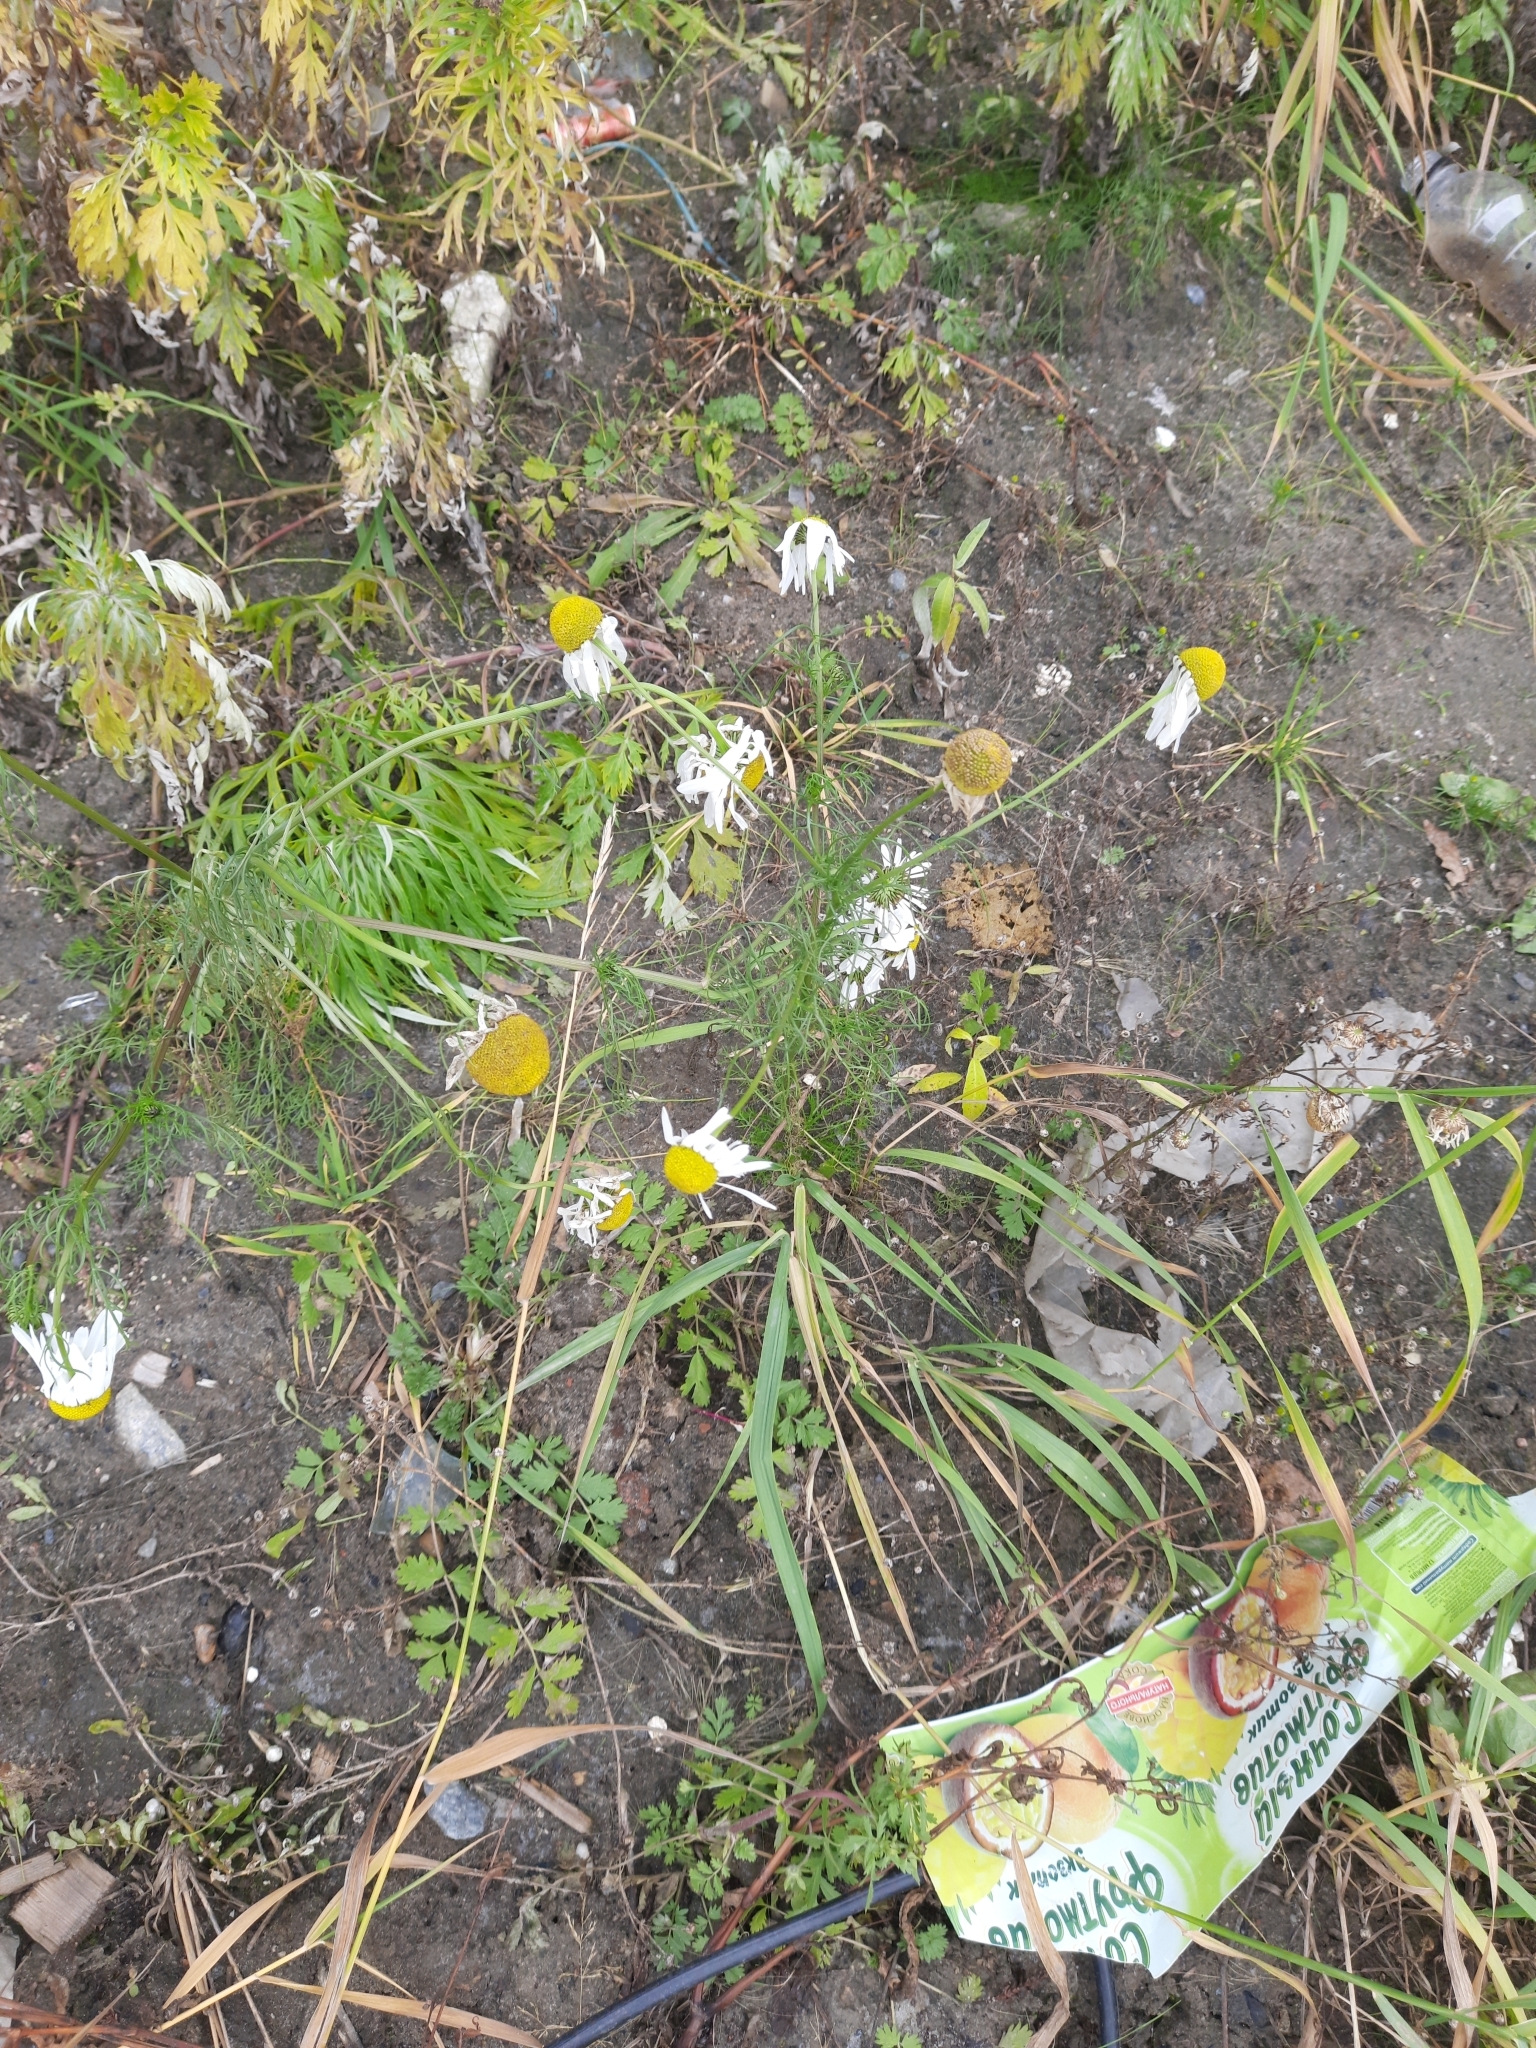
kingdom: Plantae
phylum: Tracheophyta
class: Magnoliopsida
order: Asterales
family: Asteraceae
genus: Tripleurospermum
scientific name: Tripleurospermum inodorum
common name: Scentless mayweed
